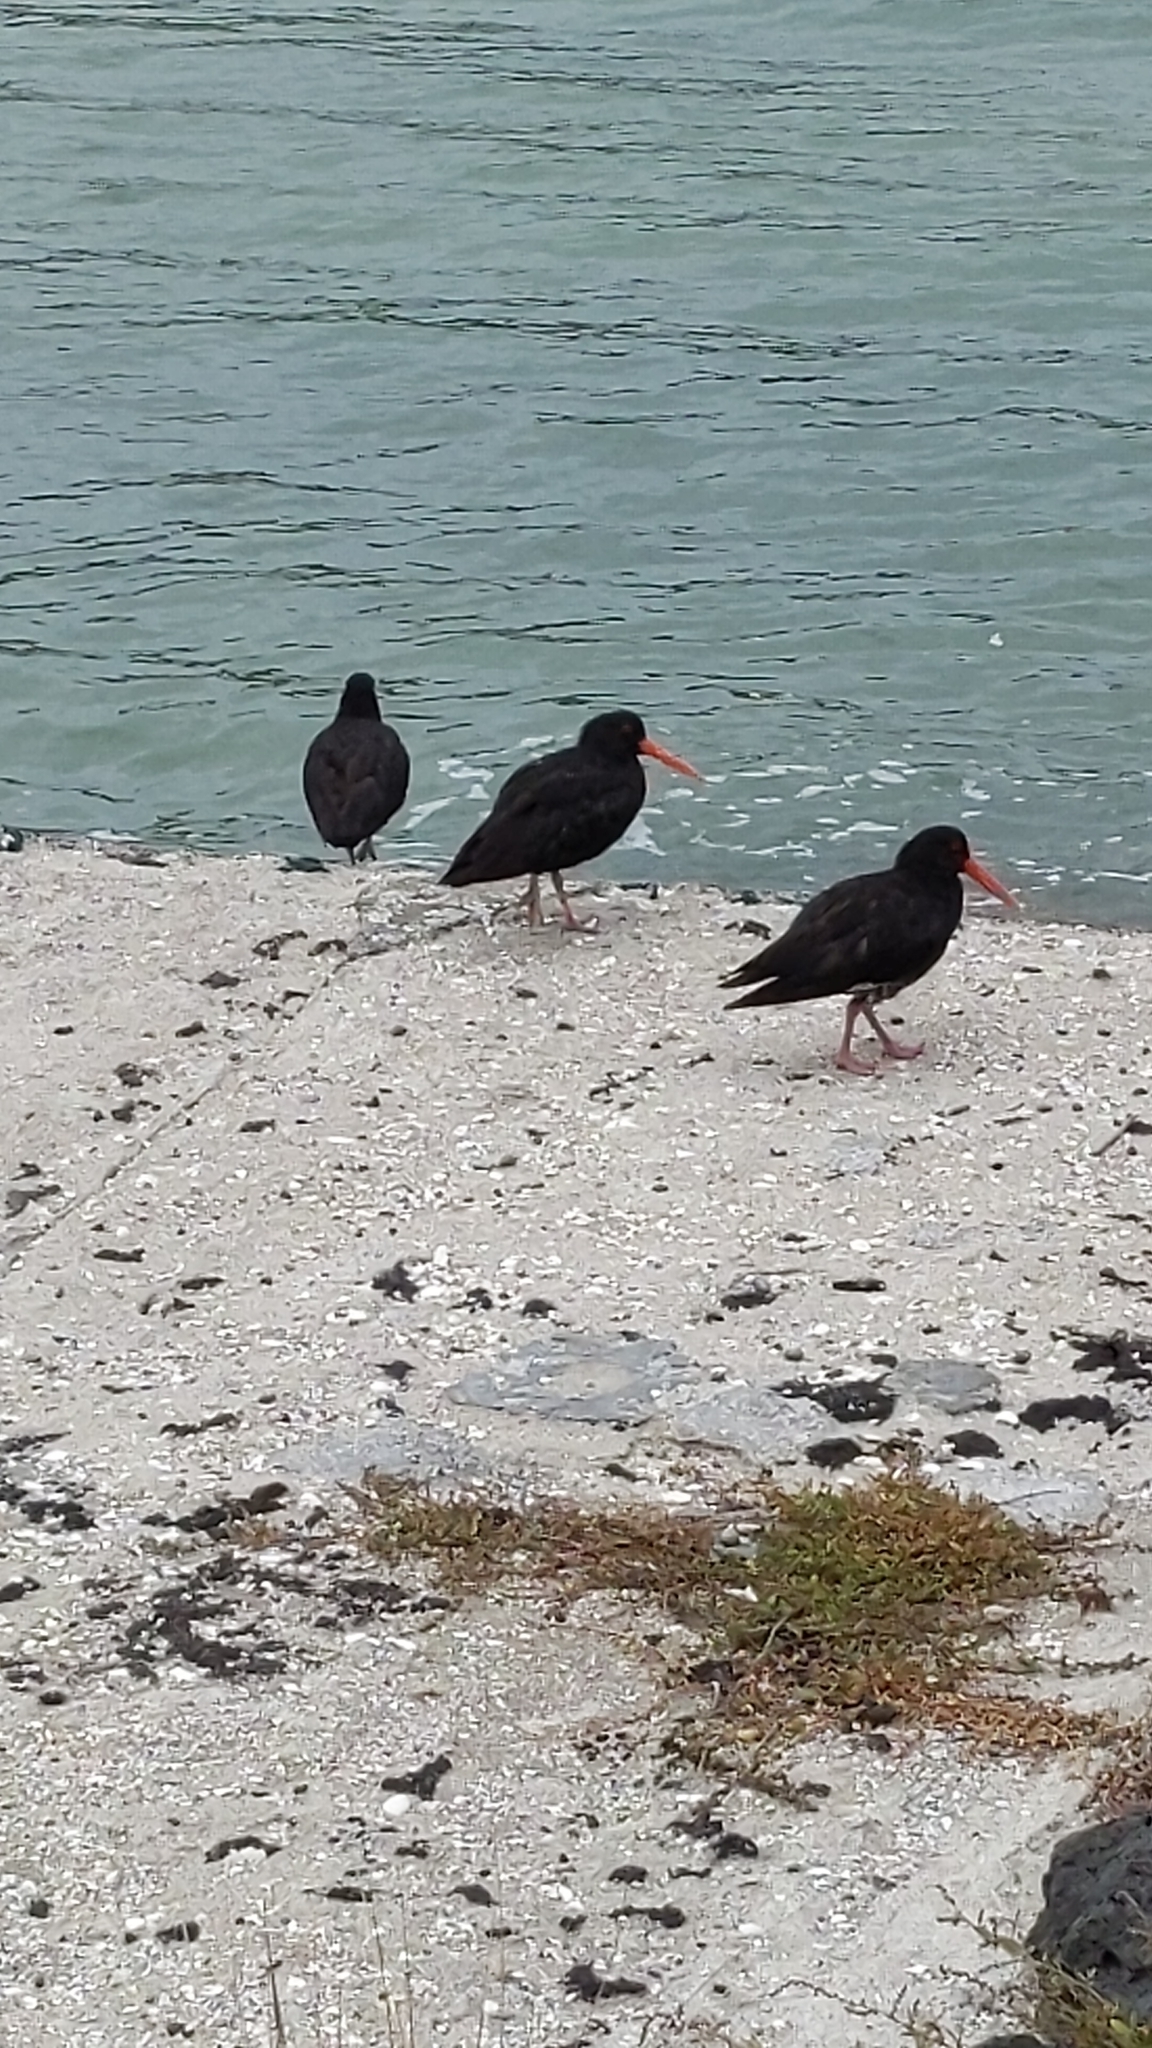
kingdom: Animalia
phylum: Chordata
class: Aves
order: Charadriiformes
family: Haematopodidae
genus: Haematopus
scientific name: Haematopus unicolor
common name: Variable oystercatcher
